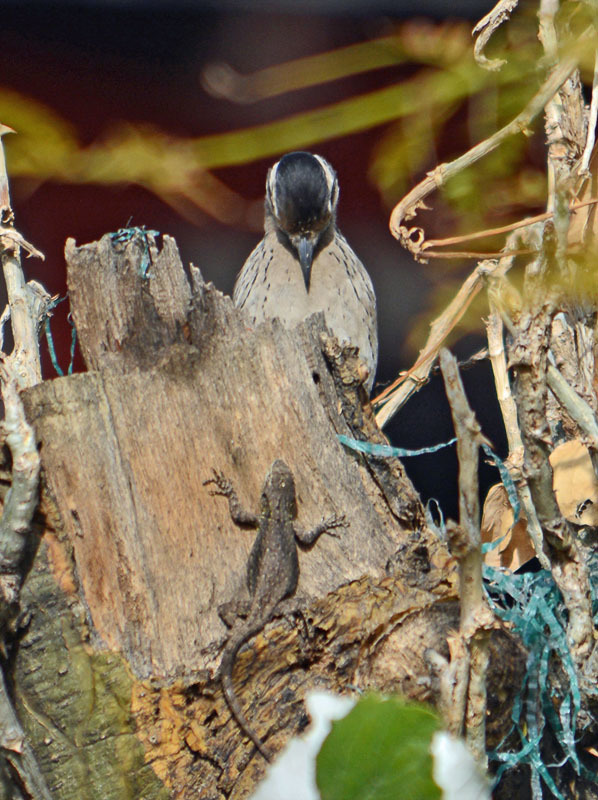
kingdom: Animalia
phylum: Chordata
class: Squamata
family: Phrynosomatidae
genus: Sceloporus
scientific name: Sceloporus grammicus
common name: Mesquite lizard
